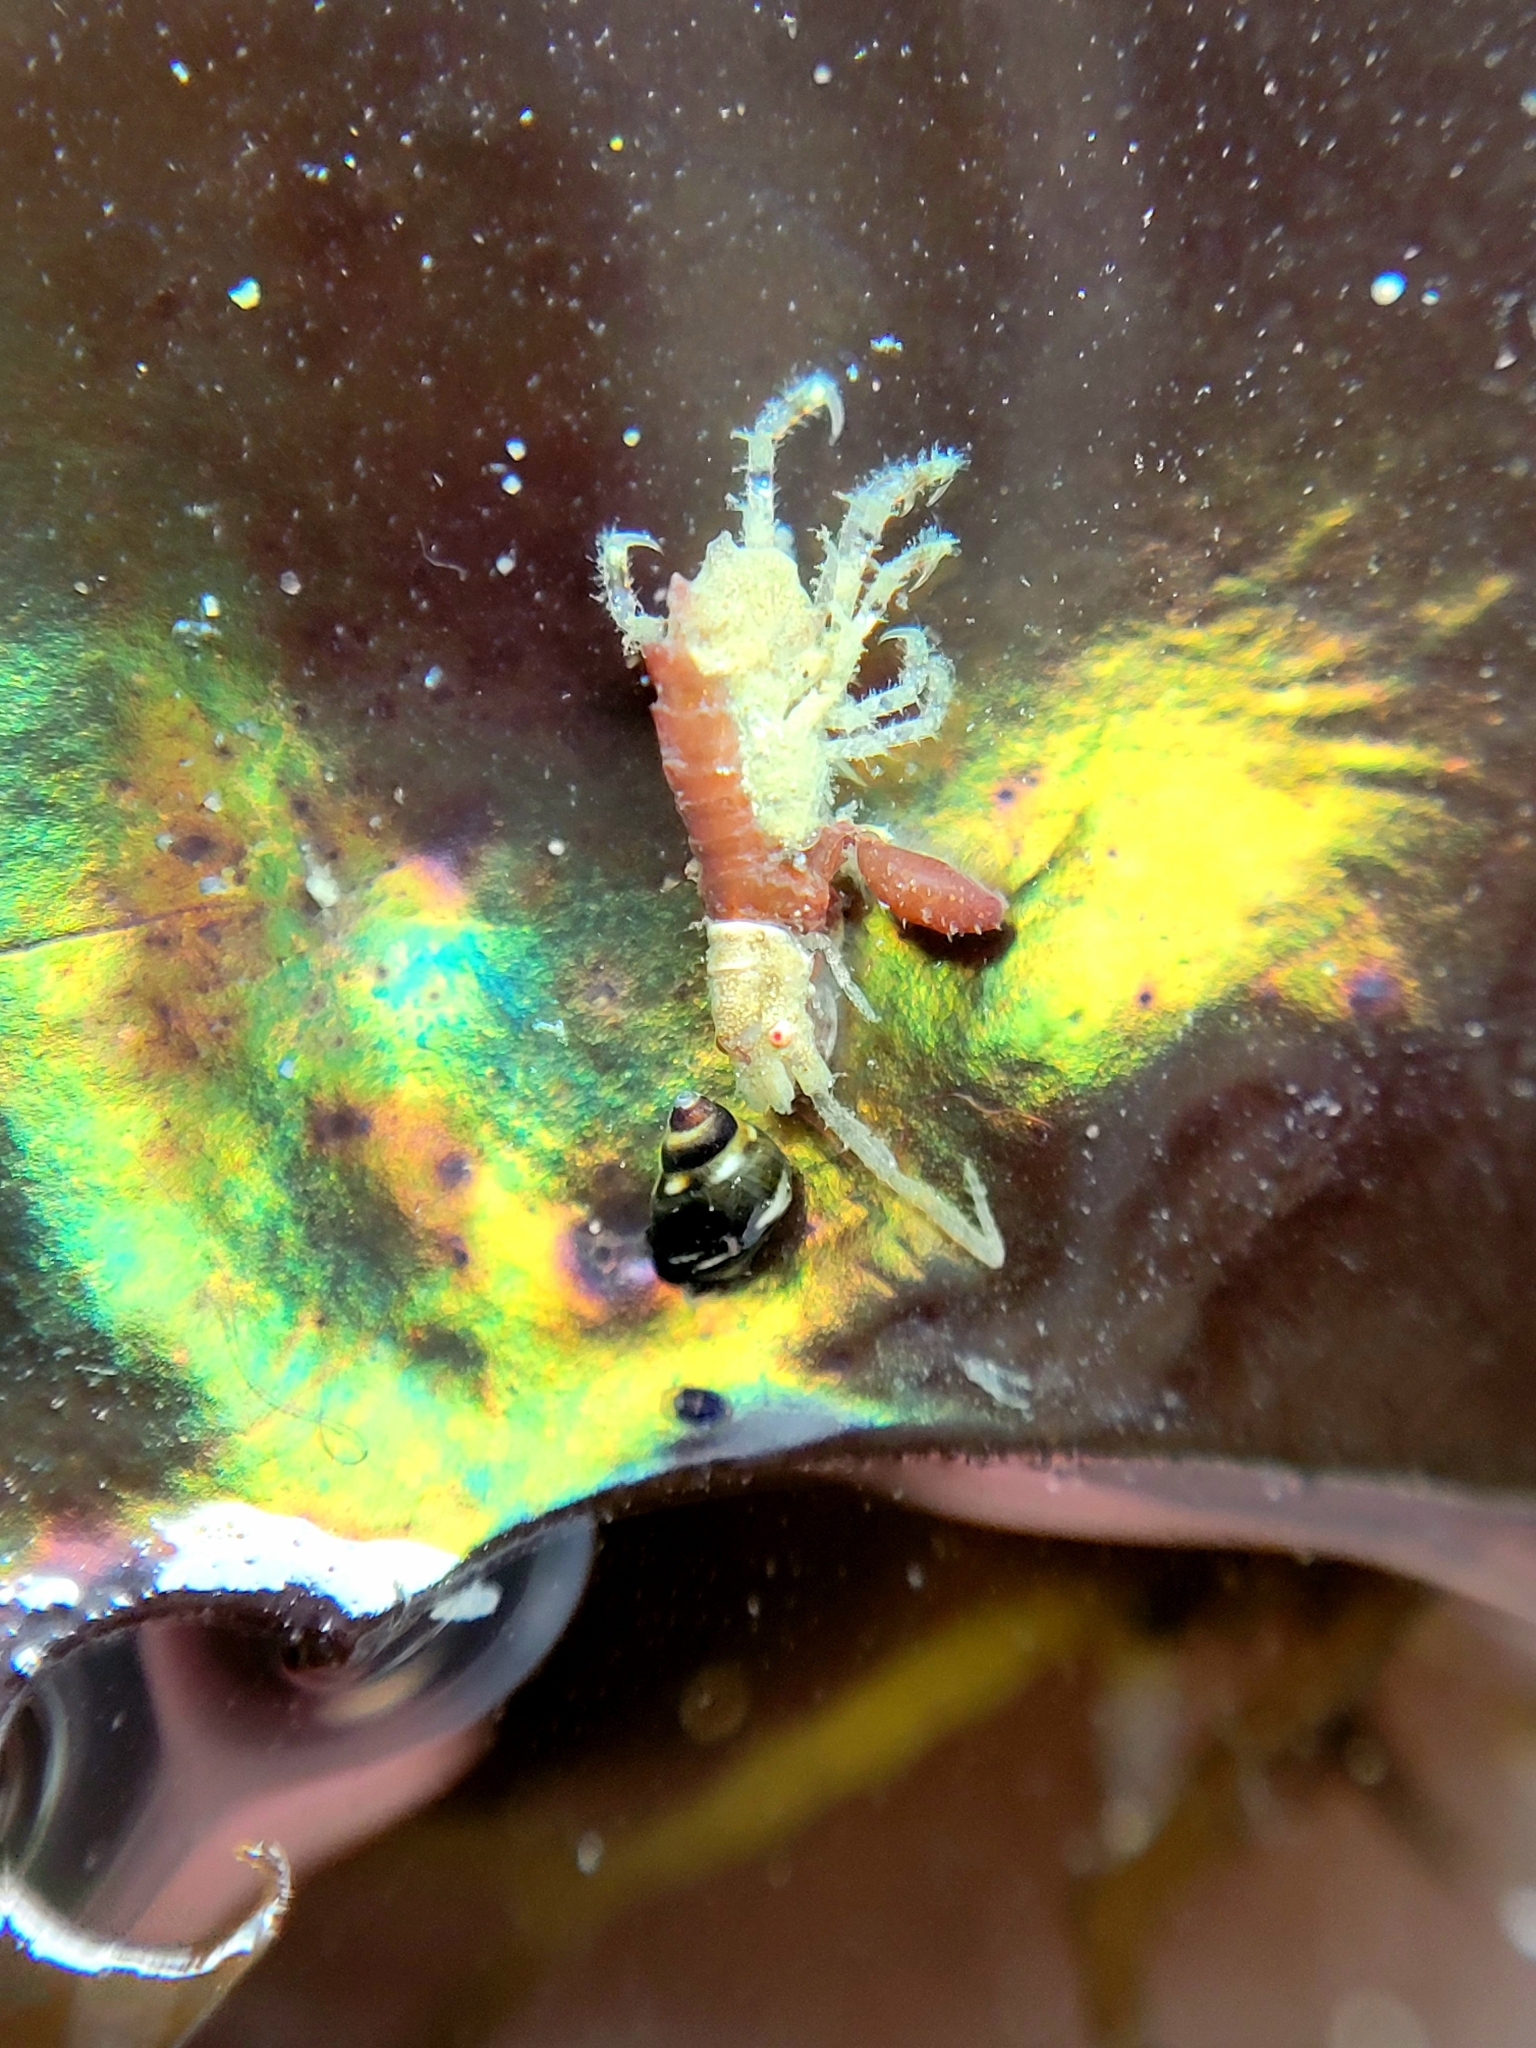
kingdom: Animalia
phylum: Arthropoda
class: Malacostraca
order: Amphipoda
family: Podoceridae
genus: Podocerus
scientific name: Podocerus cristatus
